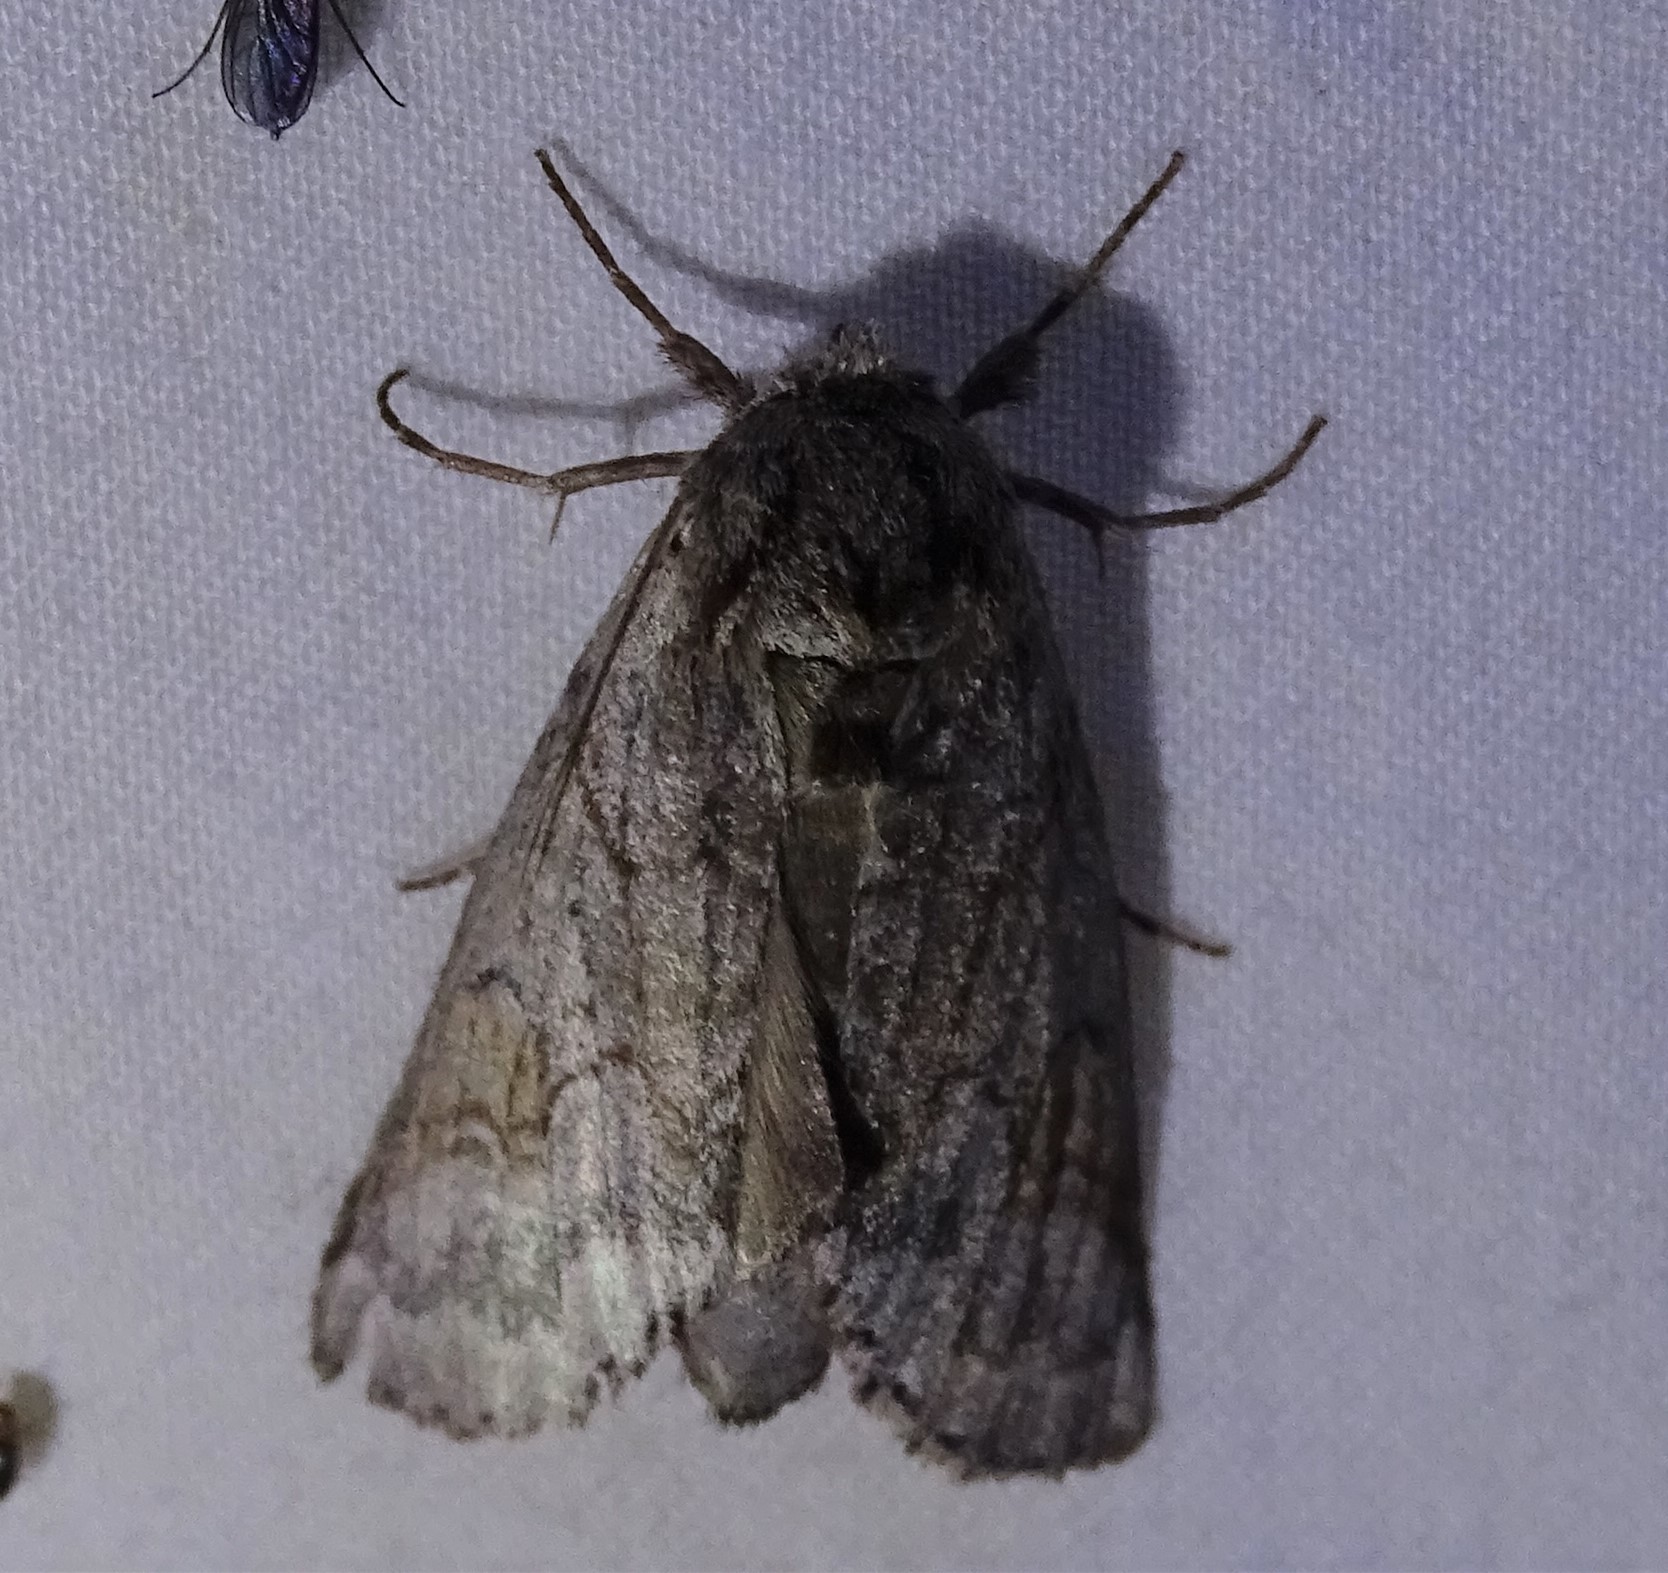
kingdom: Animalia
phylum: Arthropoda
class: Insecta
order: Lepidoptera
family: Notodontidae
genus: Lochmaeus
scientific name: Lochmaeus bilineata
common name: Double-lined prominent
